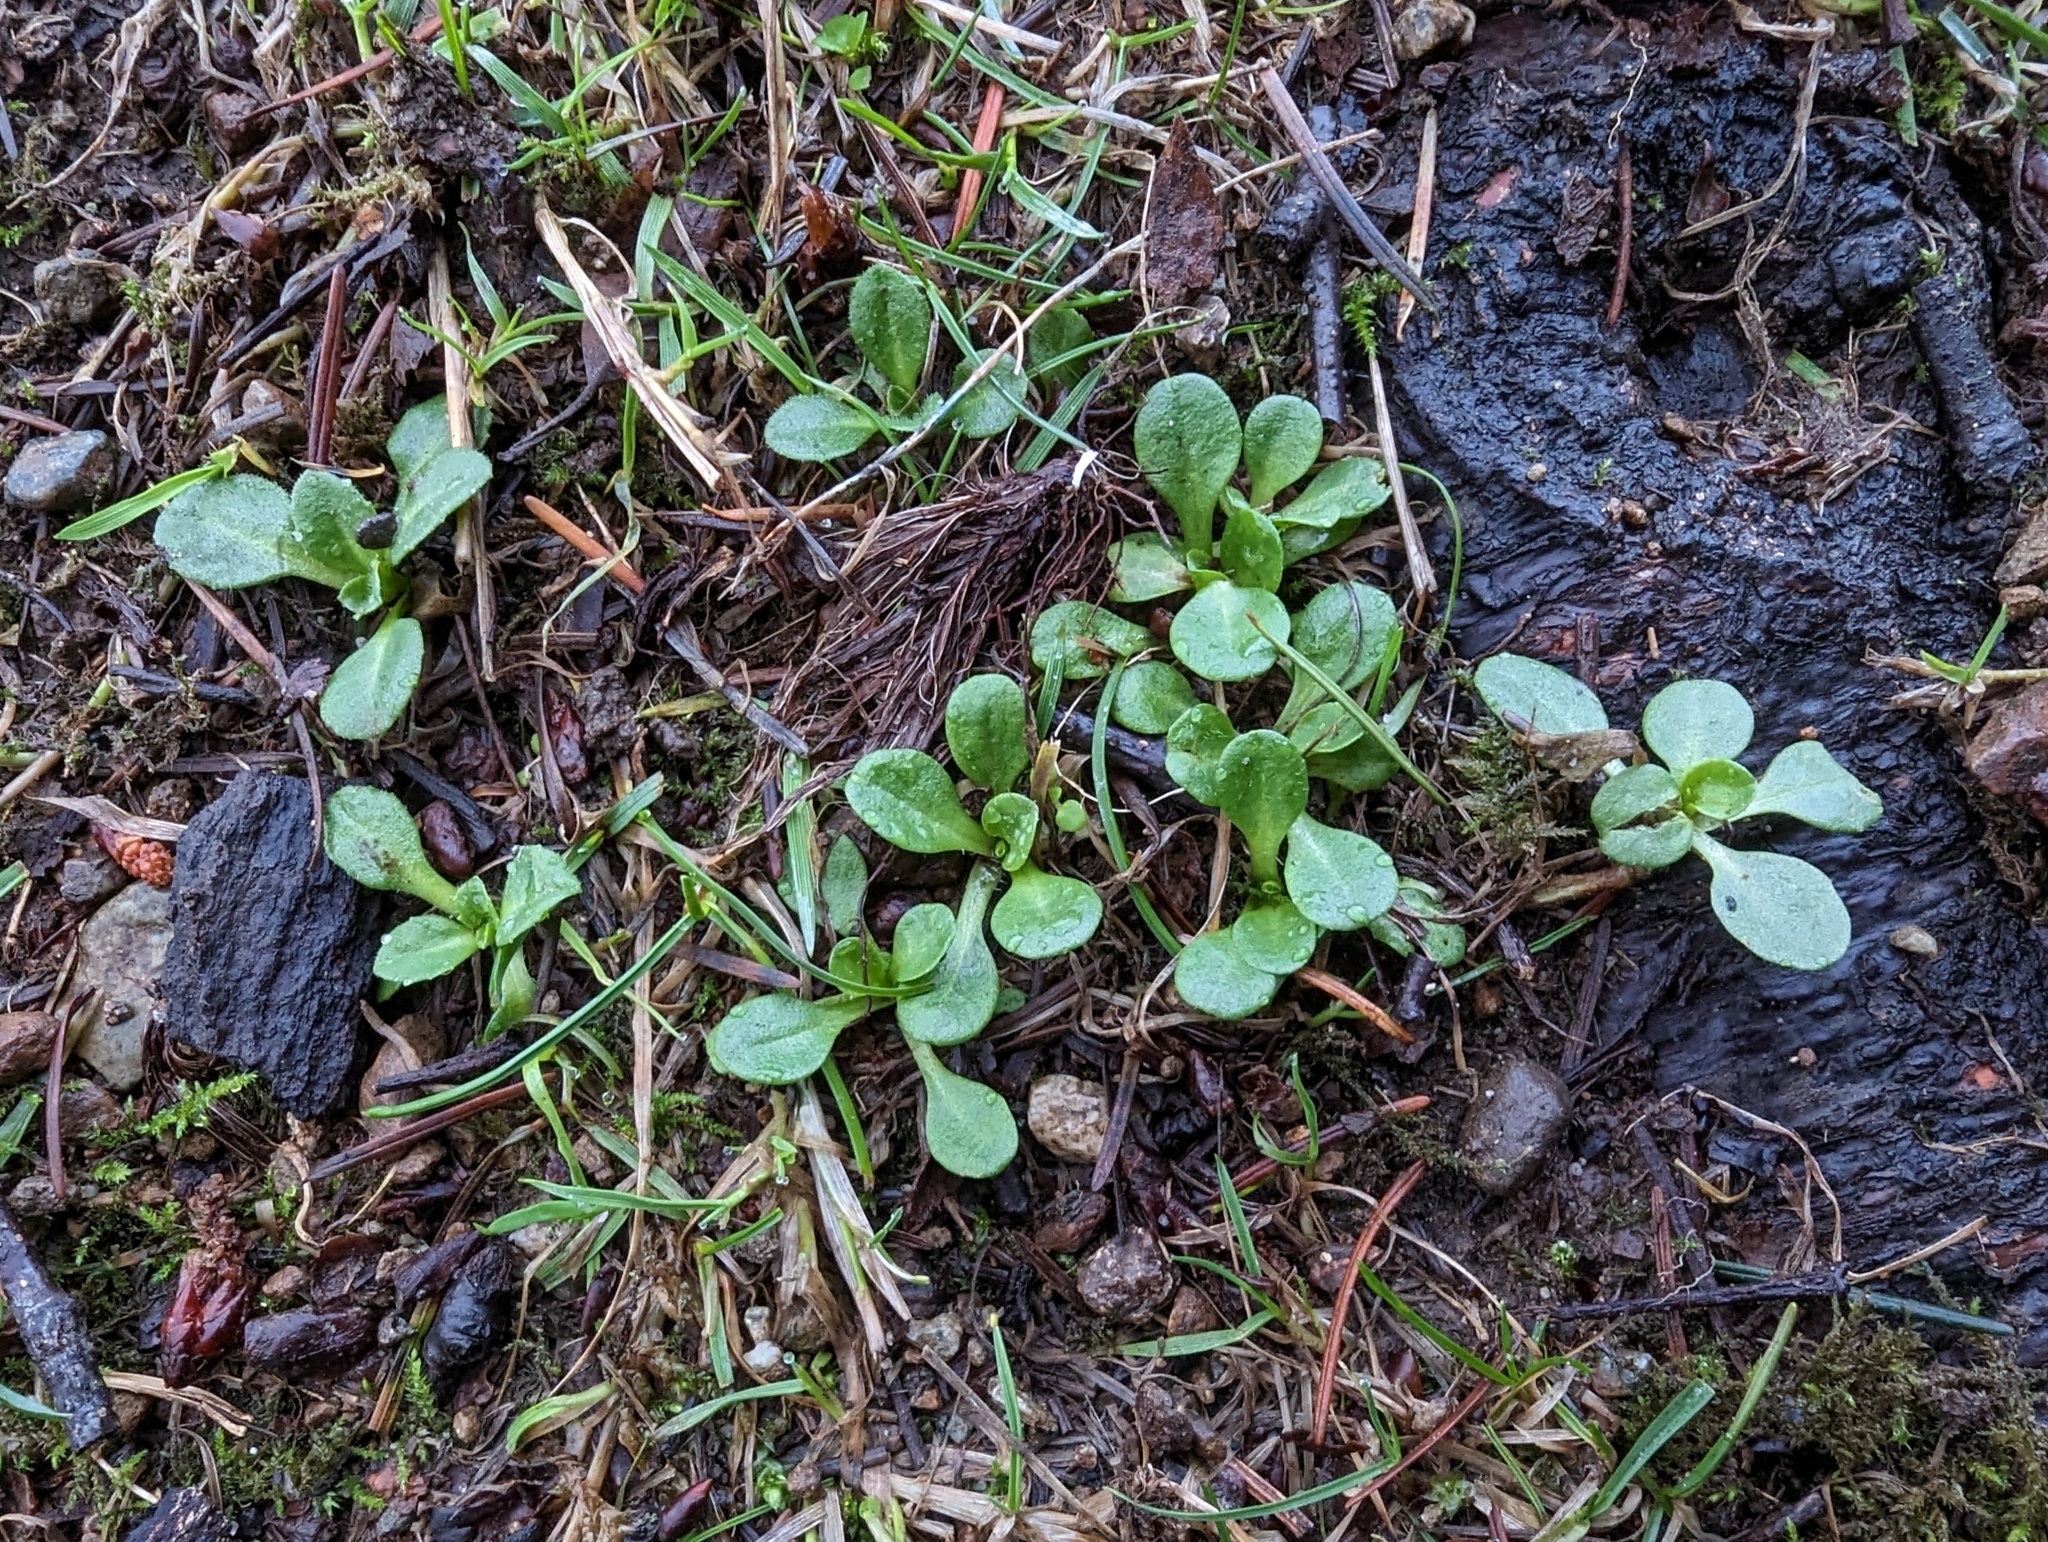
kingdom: Plantae
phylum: Tracheophyta
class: Magnoliopsida
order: Asterales
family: Asteraceae
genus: Bellis
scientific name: Bellis perennis
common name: Lawndaisy
